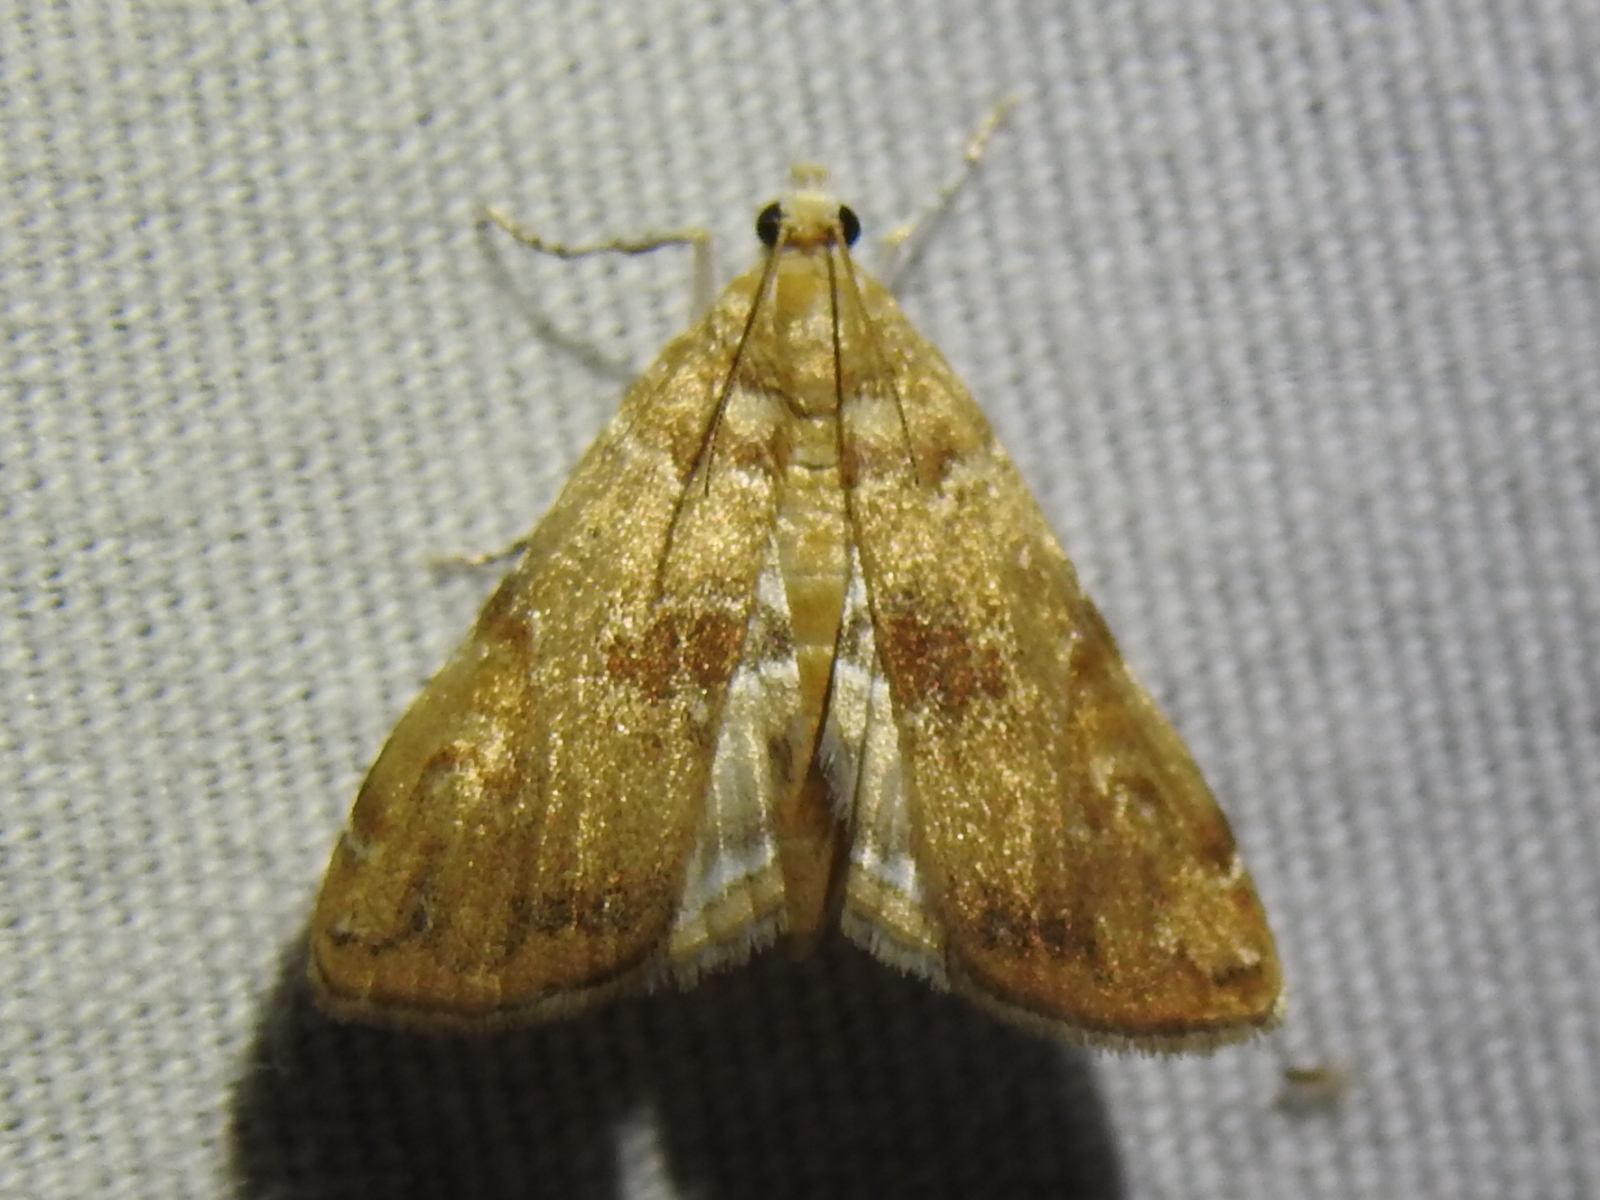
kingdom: Animalia
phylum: Arthropoda
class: Insecta
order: Lepidoptera
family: Crambidae
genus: Elophila
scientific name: Elophila gyralis
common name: Waterlily borer moth
